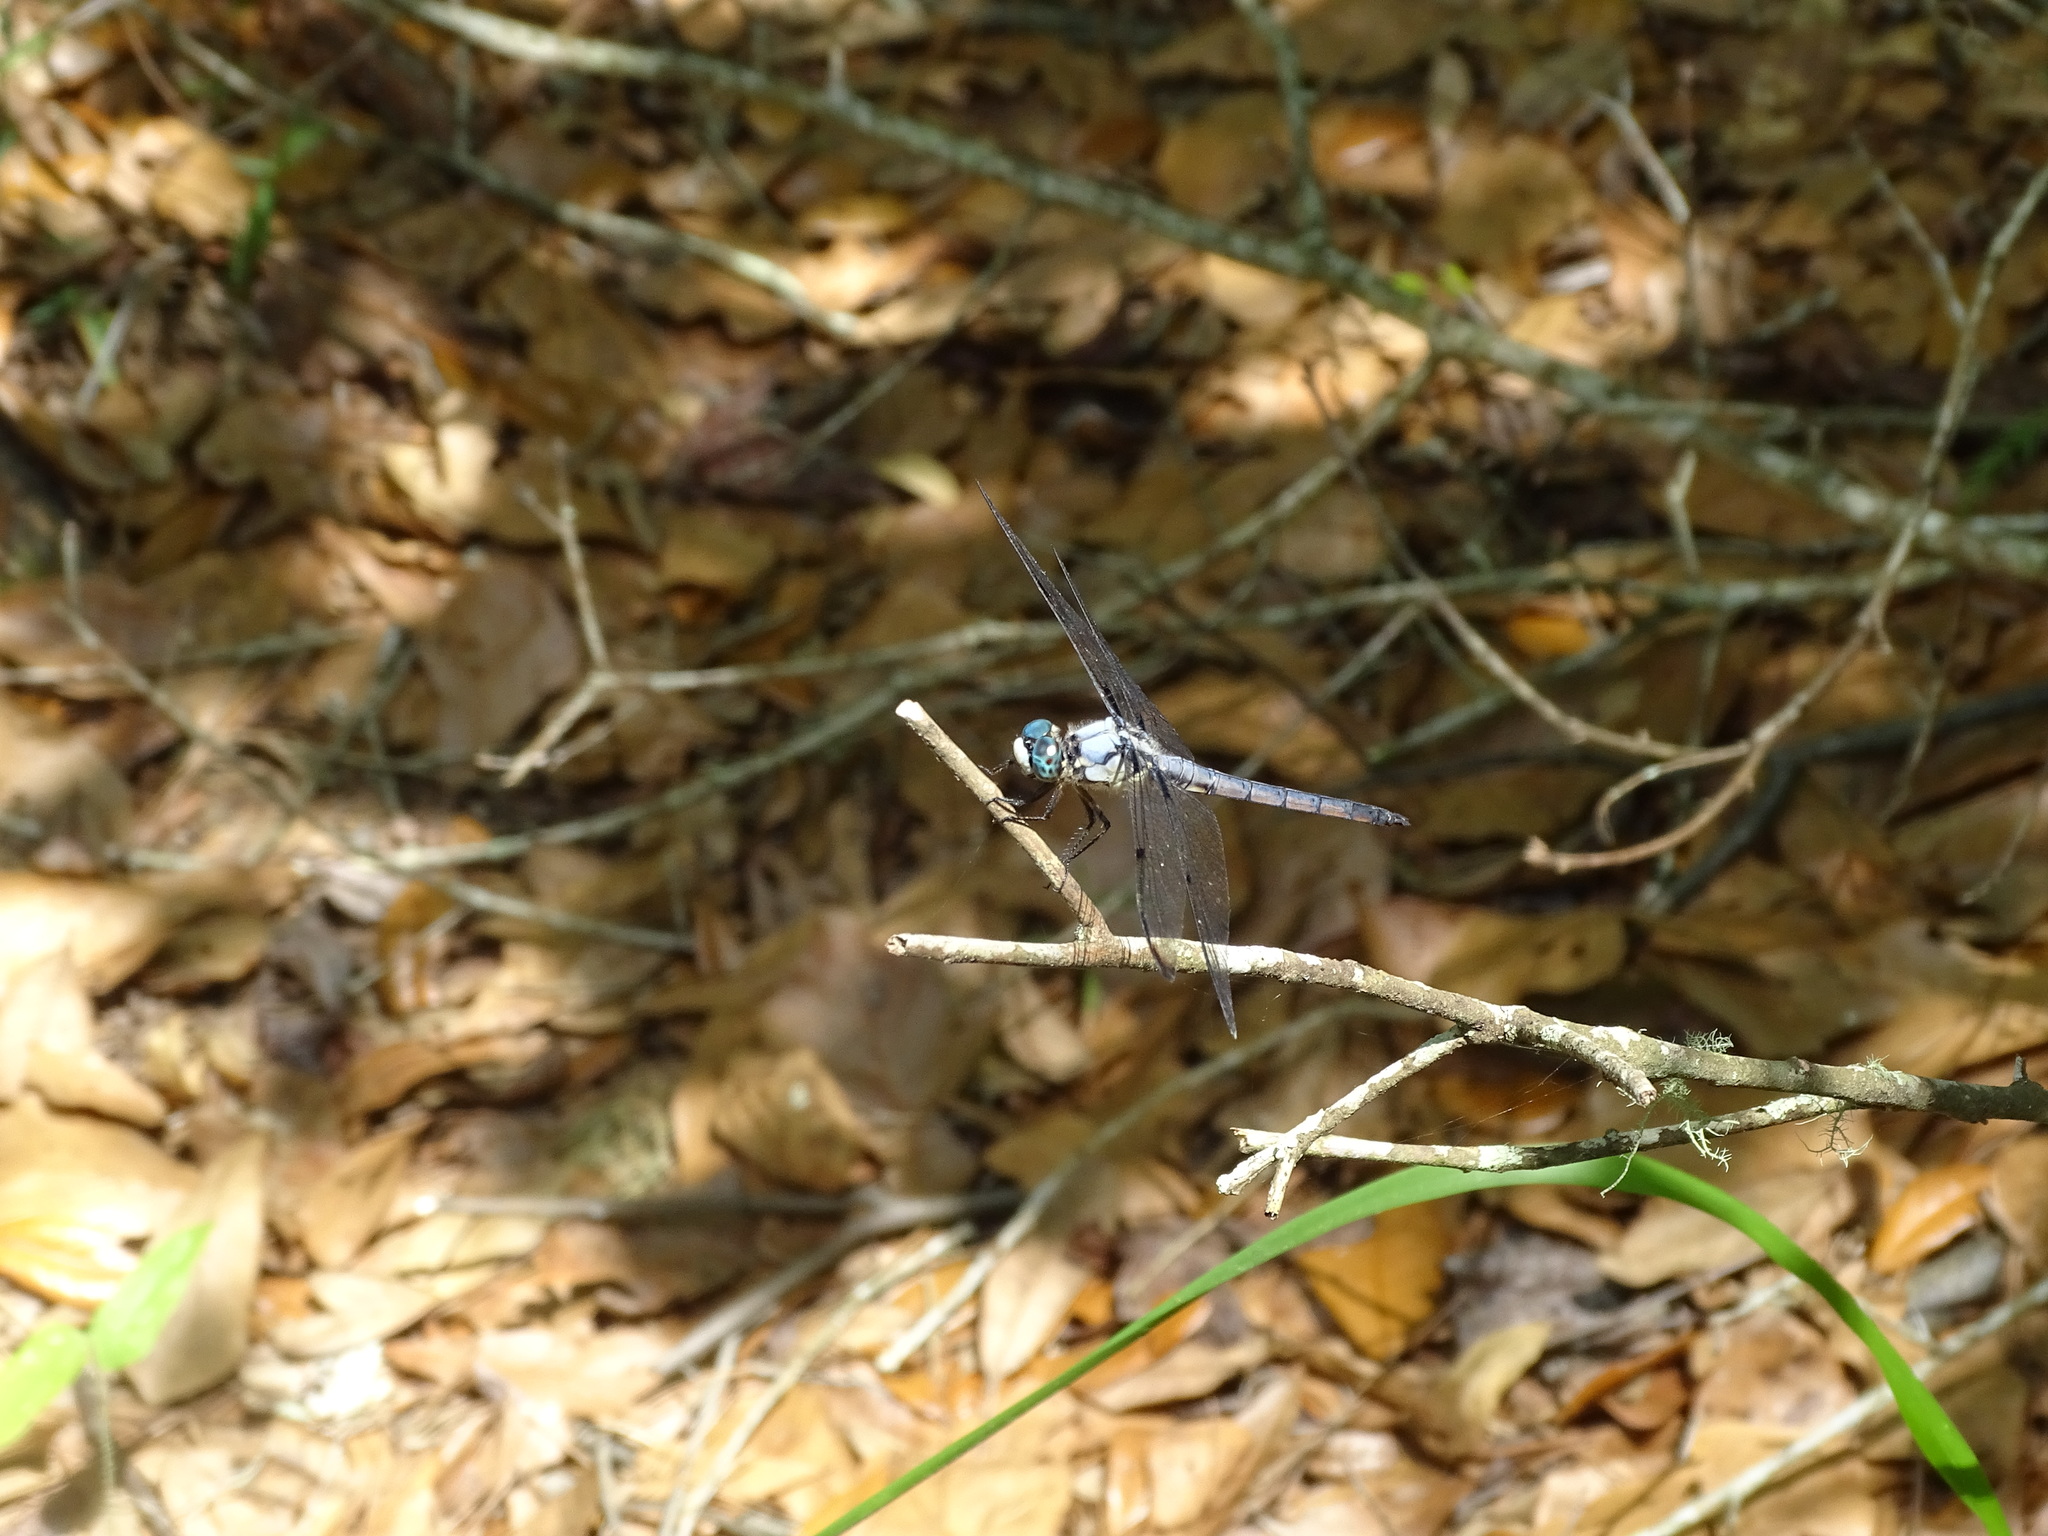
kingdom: Animalia
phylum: Arthropoda
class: Insecta
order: Odonata
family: Libellulidae
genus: Libellula
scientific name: Libellula vibrans
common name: Great blue skimmer
